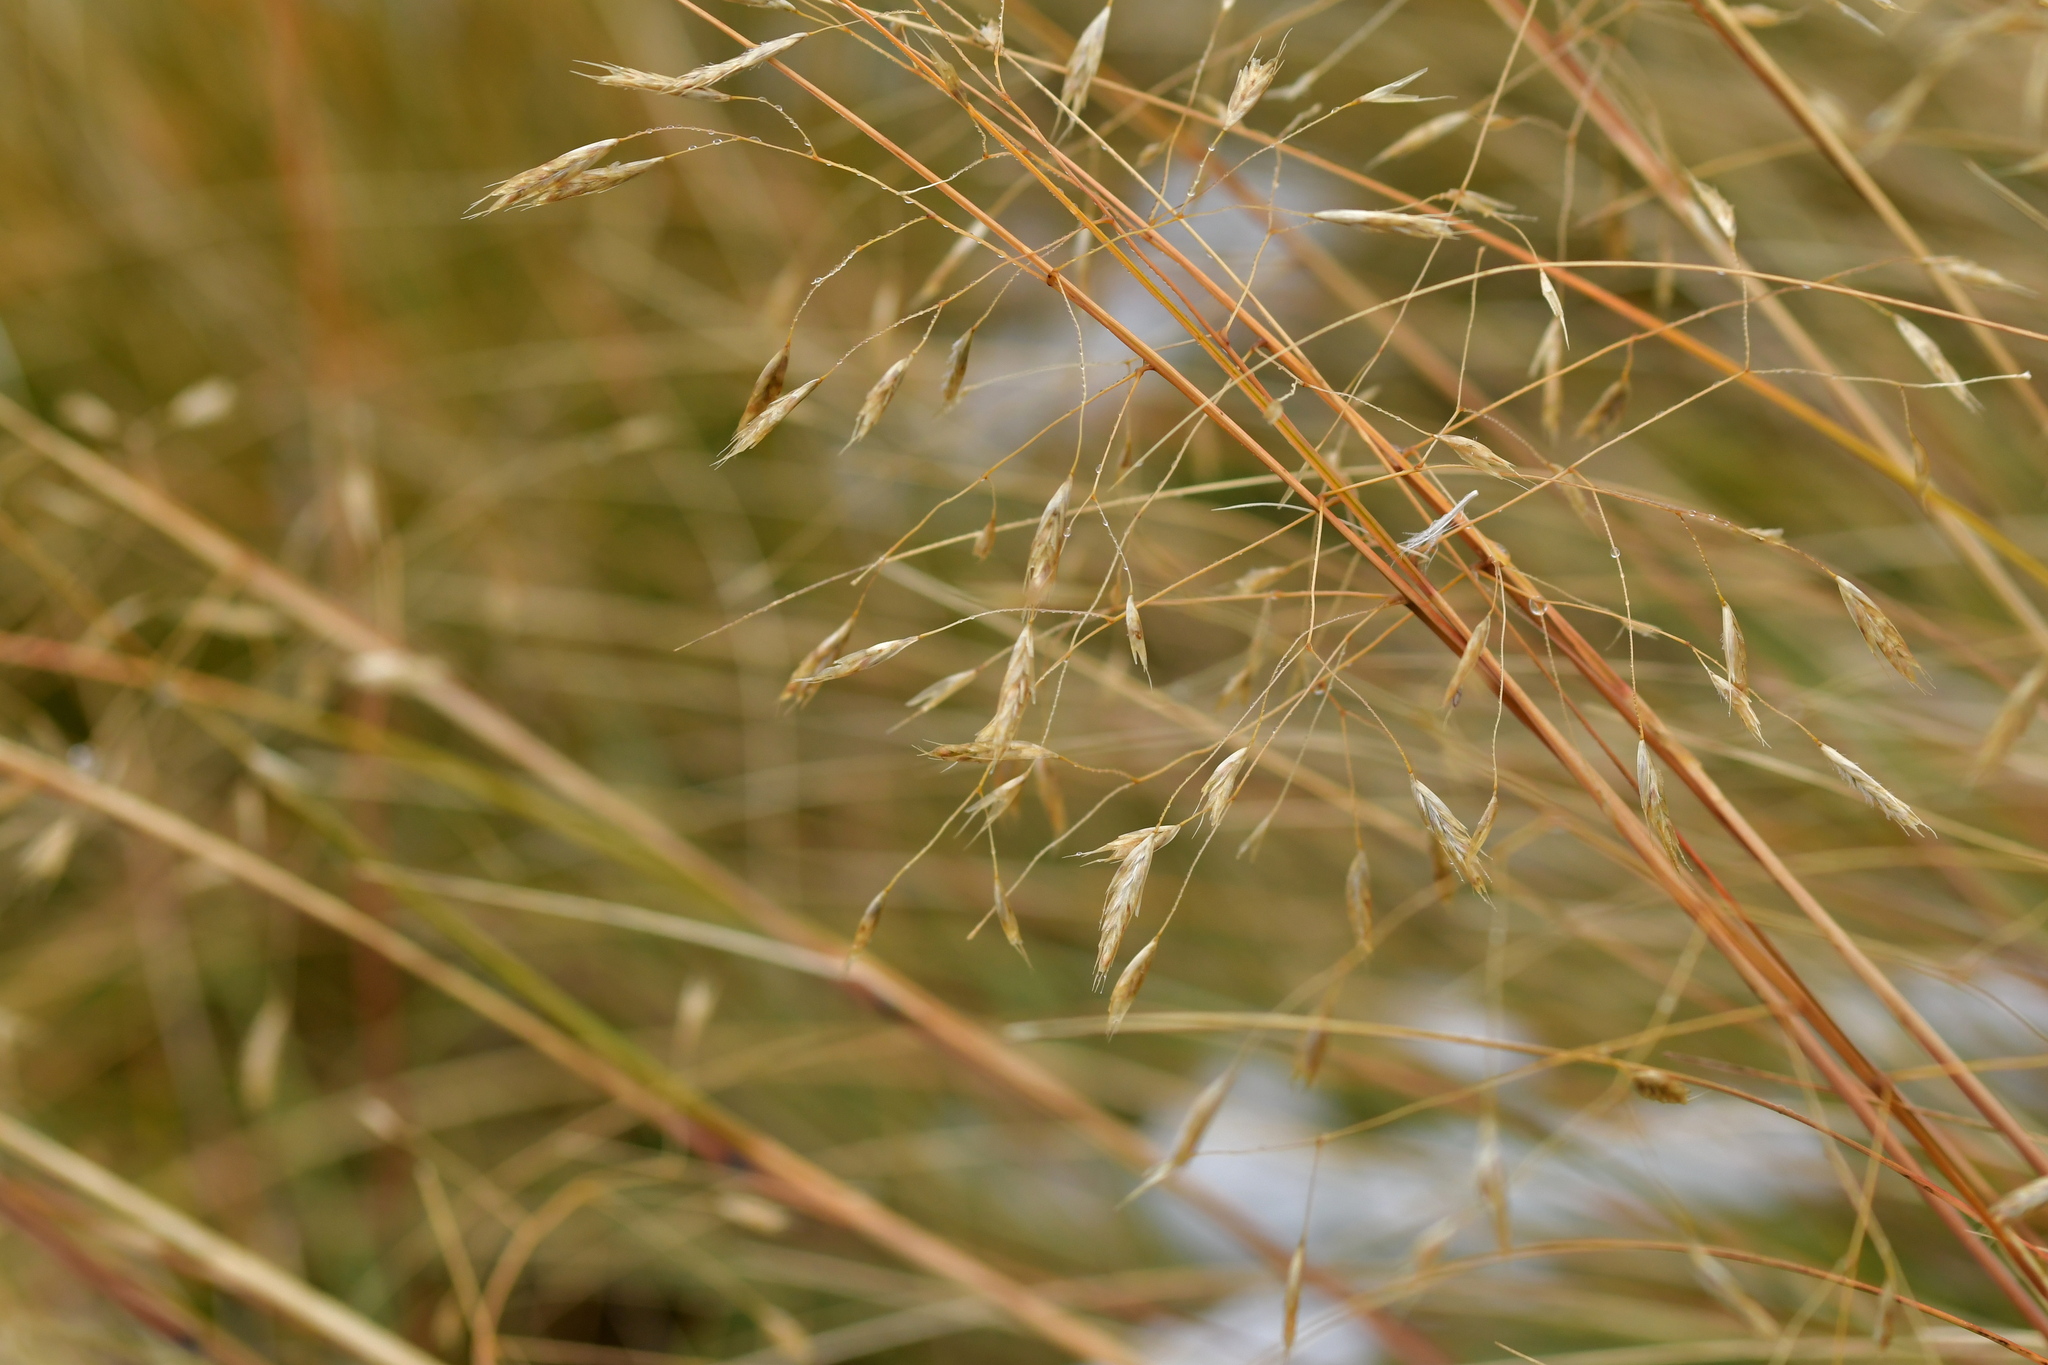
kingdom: Plantae
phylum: Tracheophyta
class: Liliopsida
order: Poales
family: Poaceae
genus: Chionochloa
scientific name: Chionochloa rigida
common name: Narrow leaved snow tussock
